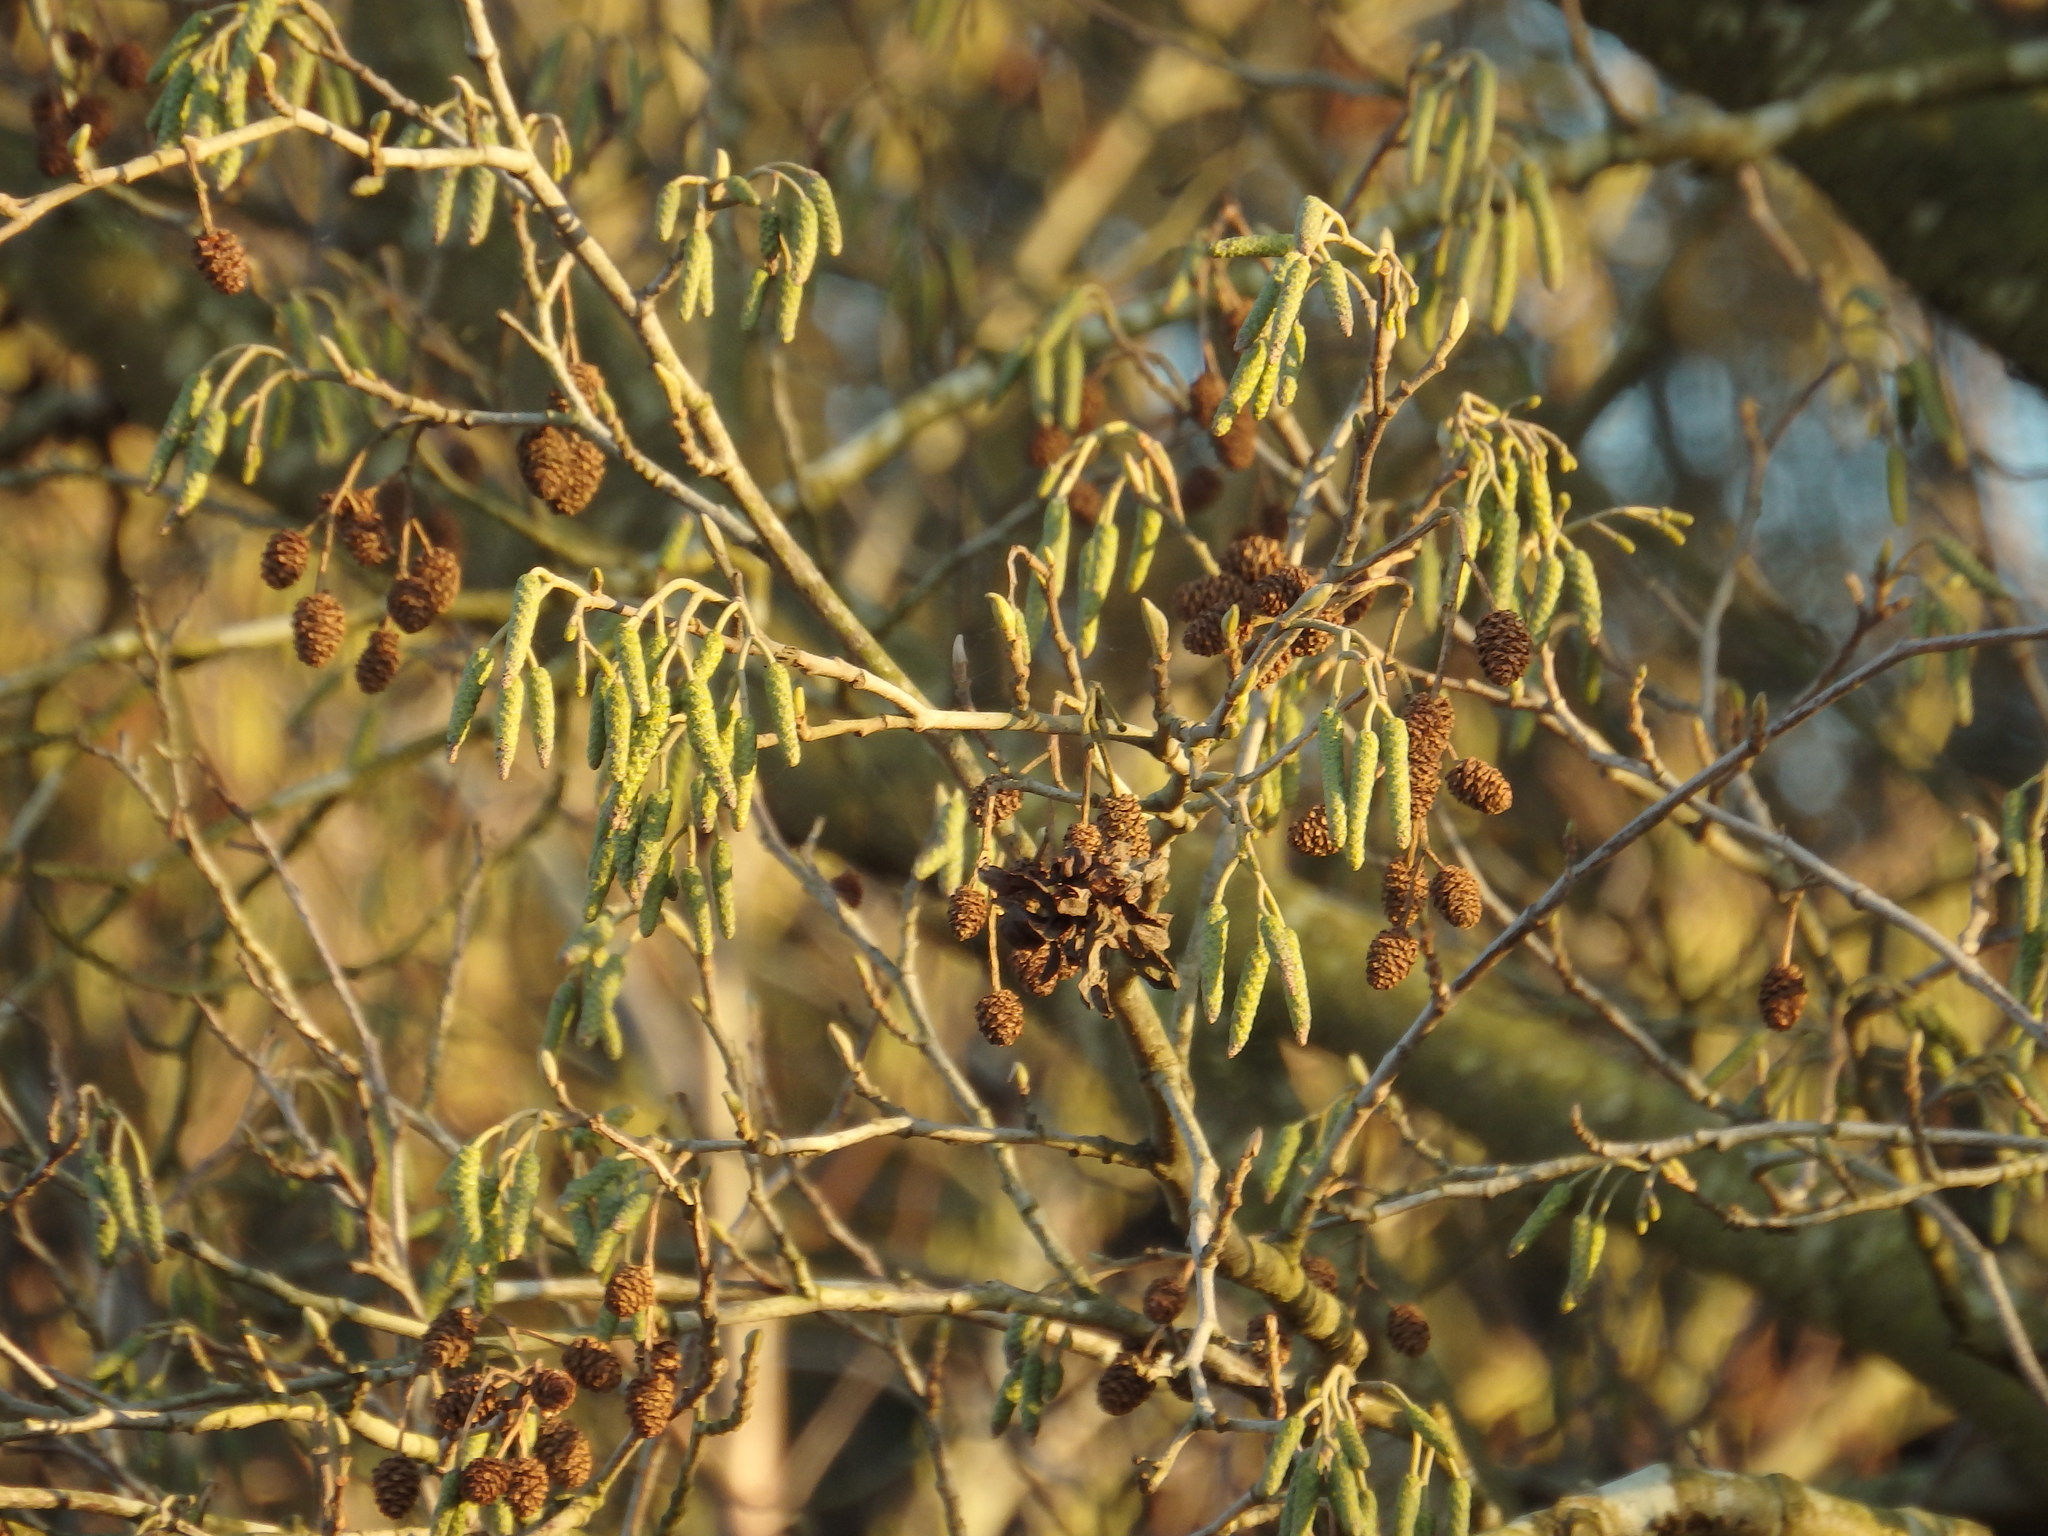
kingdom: Plantae
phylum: Tracheophyta
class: Magnoliopsida
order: Fagales
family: Betulaceae
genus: Alnus
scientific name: Alnus lusitanica
